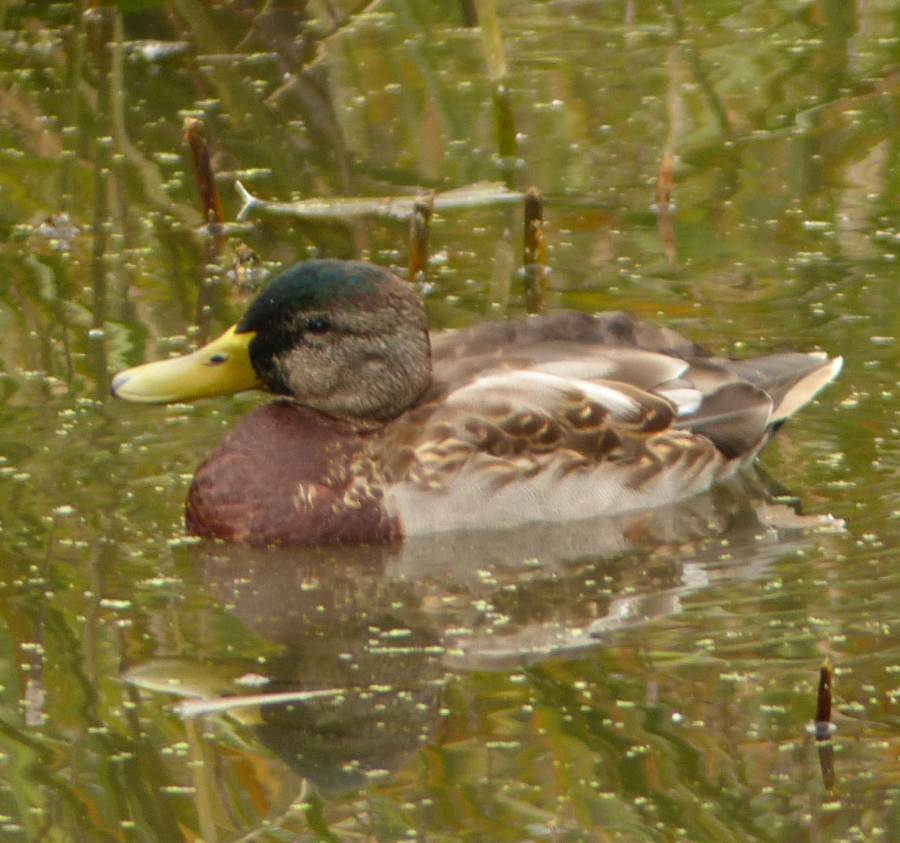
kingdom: Animalia
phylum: Chordata
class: Aves
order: Anseriformes
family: Anatidae
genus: Anas
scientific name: Anas platyrhynchos
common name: Mallard
